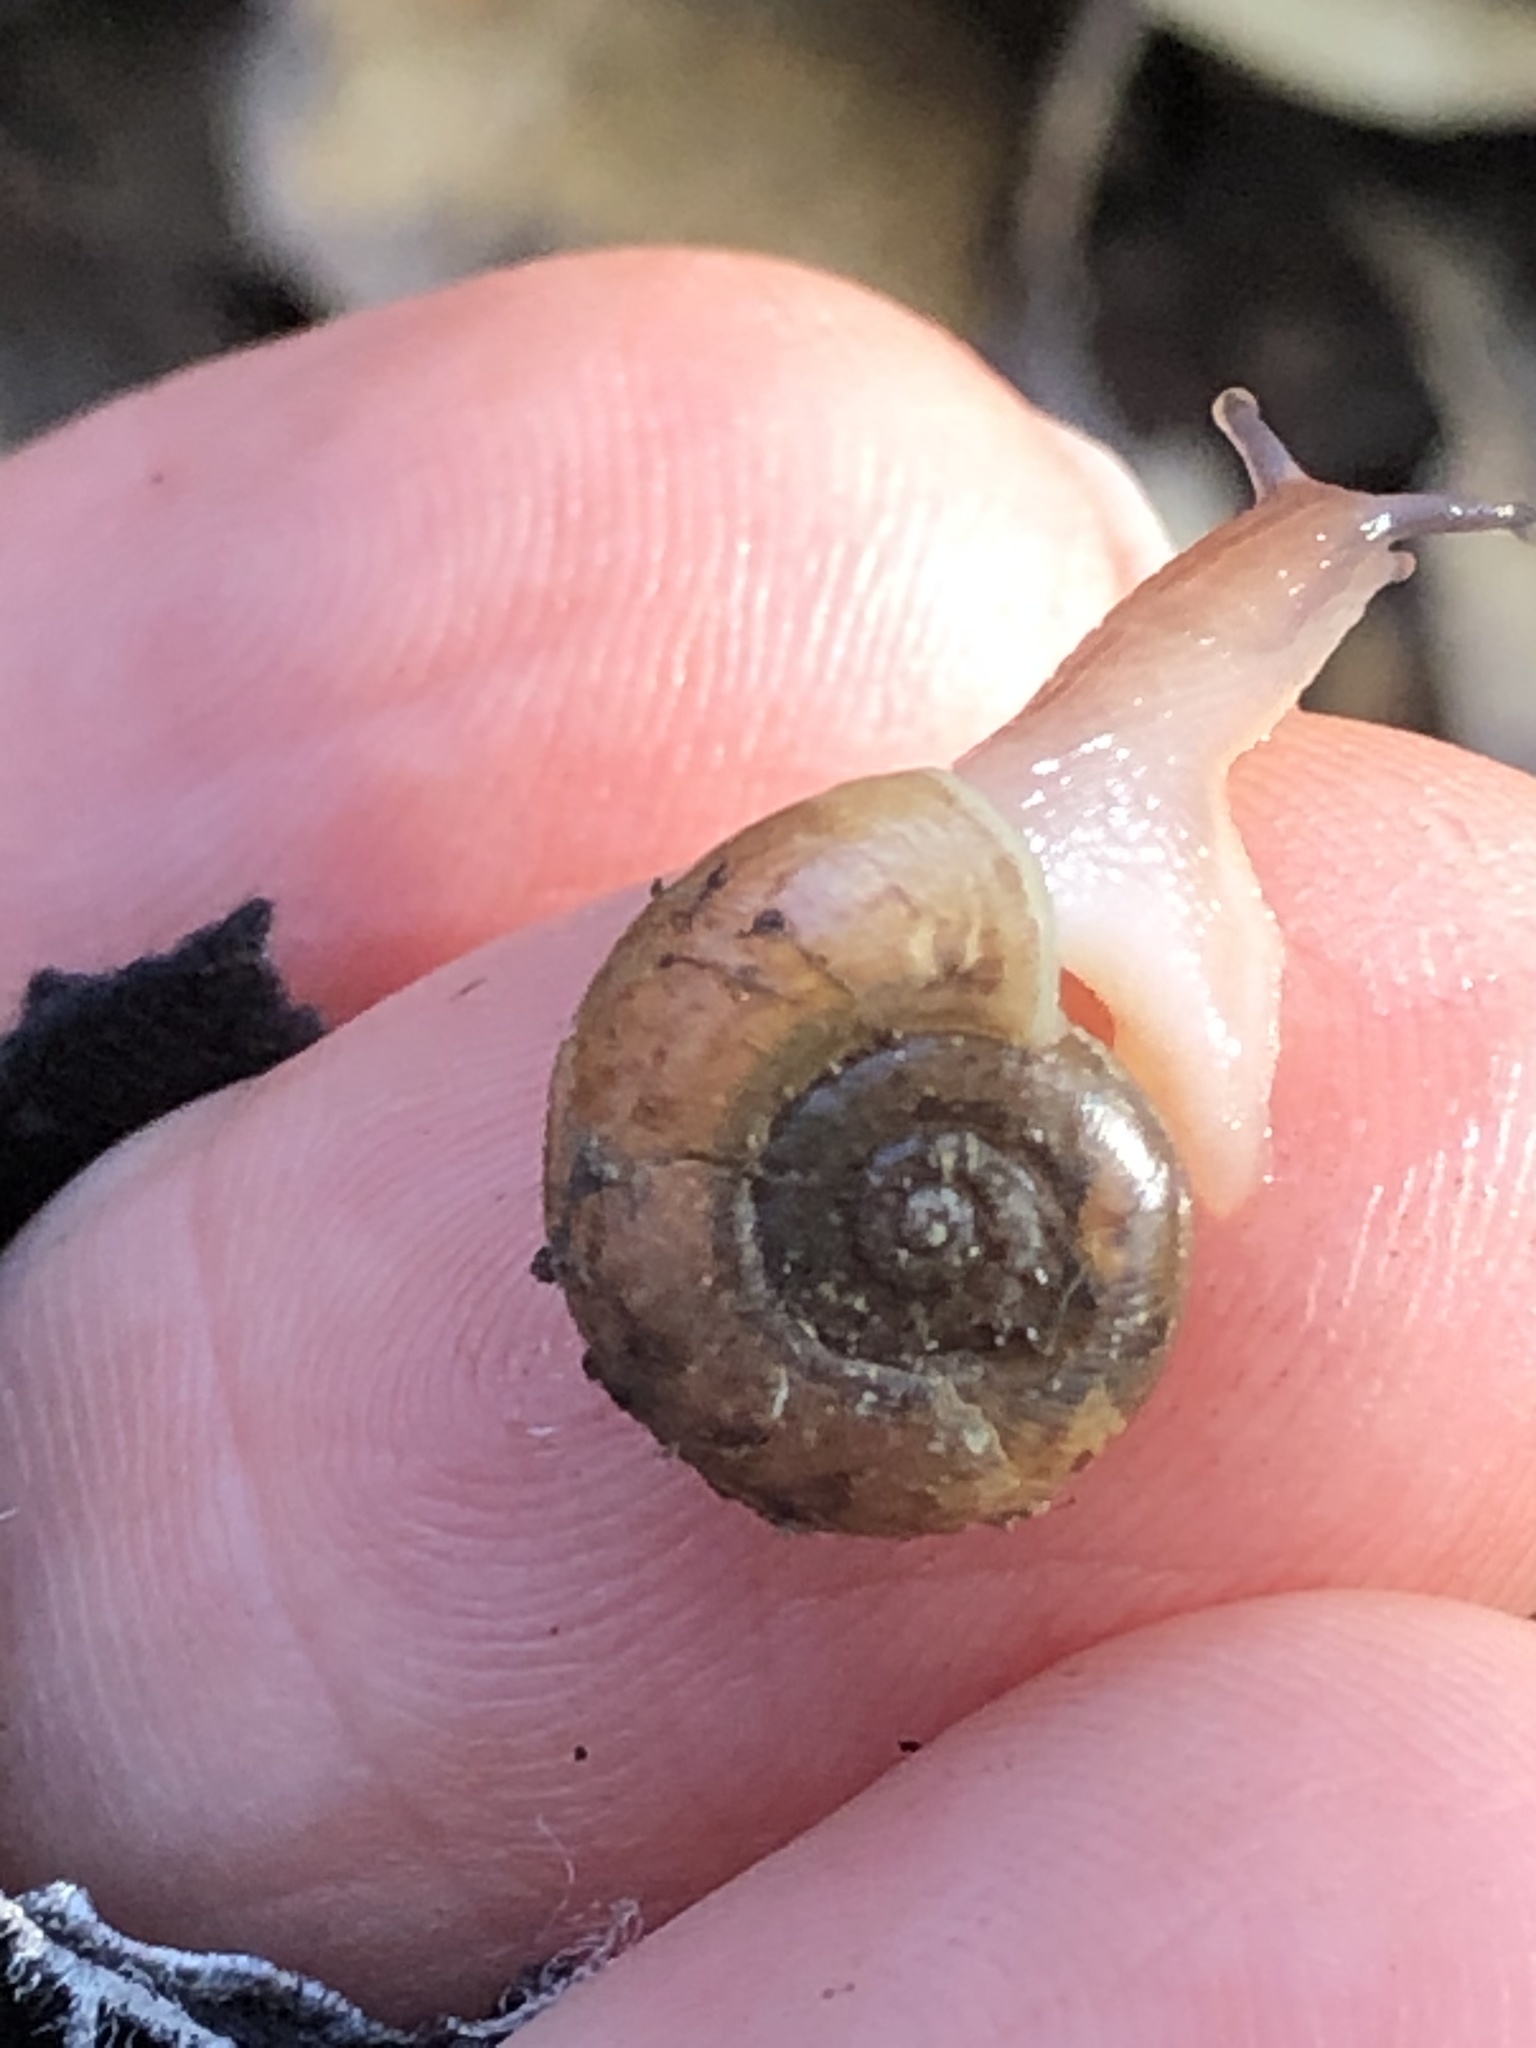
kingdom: Animalia
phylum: Mollusca
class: Gastropoda
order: Stylommatophora
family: Haplotrematidae
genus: Haplotrema
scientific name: Haplotrema minimum
